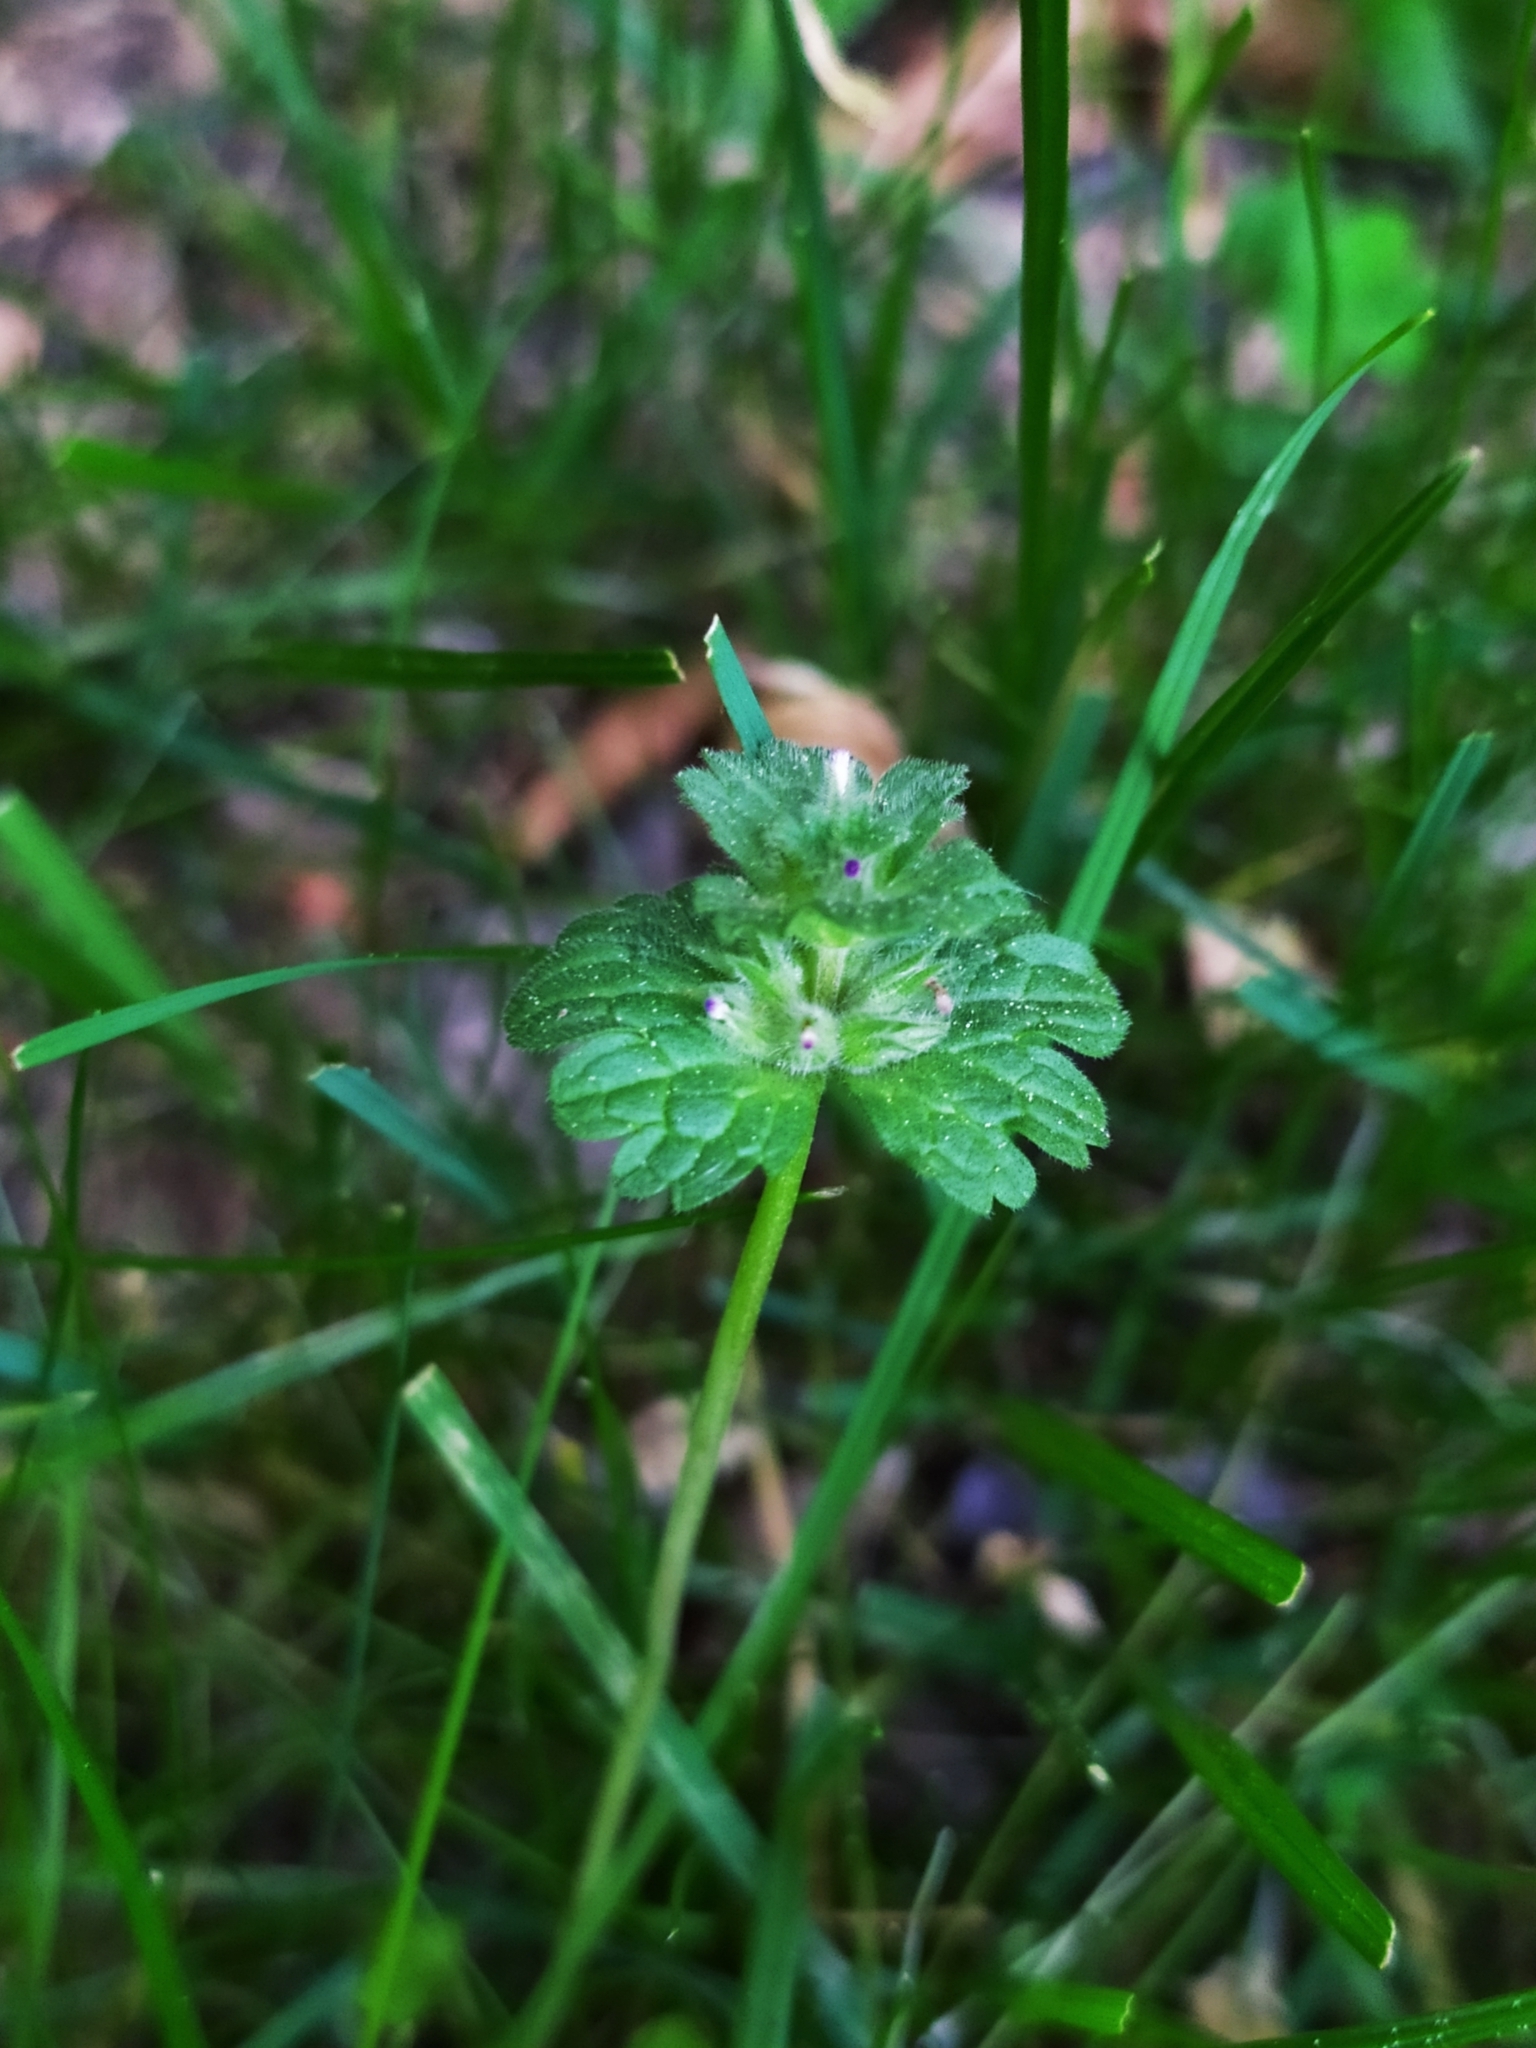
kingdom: Plantae
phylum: Tracheophyta
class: Magnoliopsida
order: Lamiales
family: Lamiaceae
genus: Lamium
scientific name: Lamium amplexicaule
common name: Henbit dead-nettle
